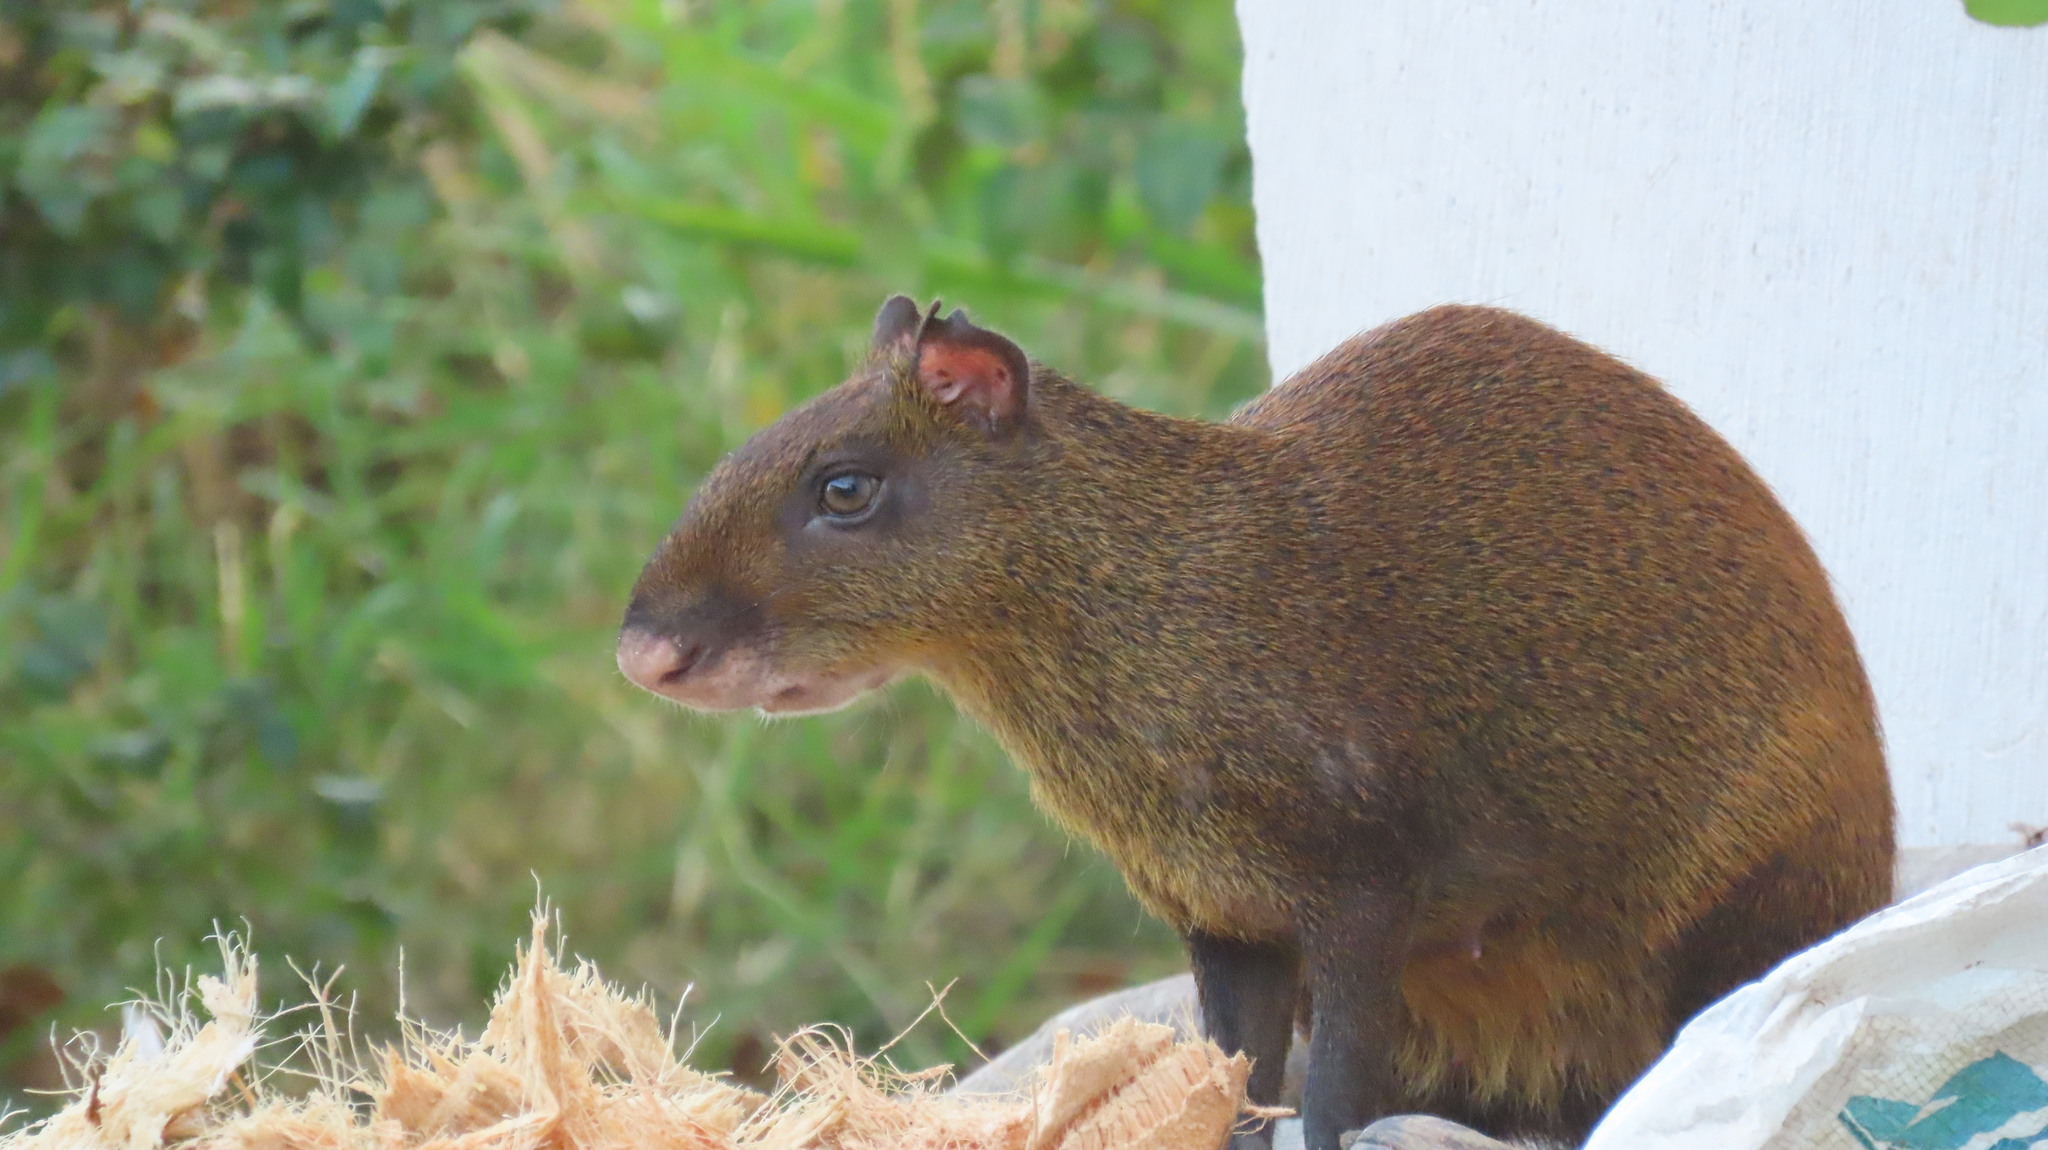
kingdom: Animalia
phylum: Chordata
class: Mammalia
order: Rodentia
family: Dasyproctidae
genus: Dasyprocta
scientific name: Dasyprocta punctata
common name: Central american agouti
